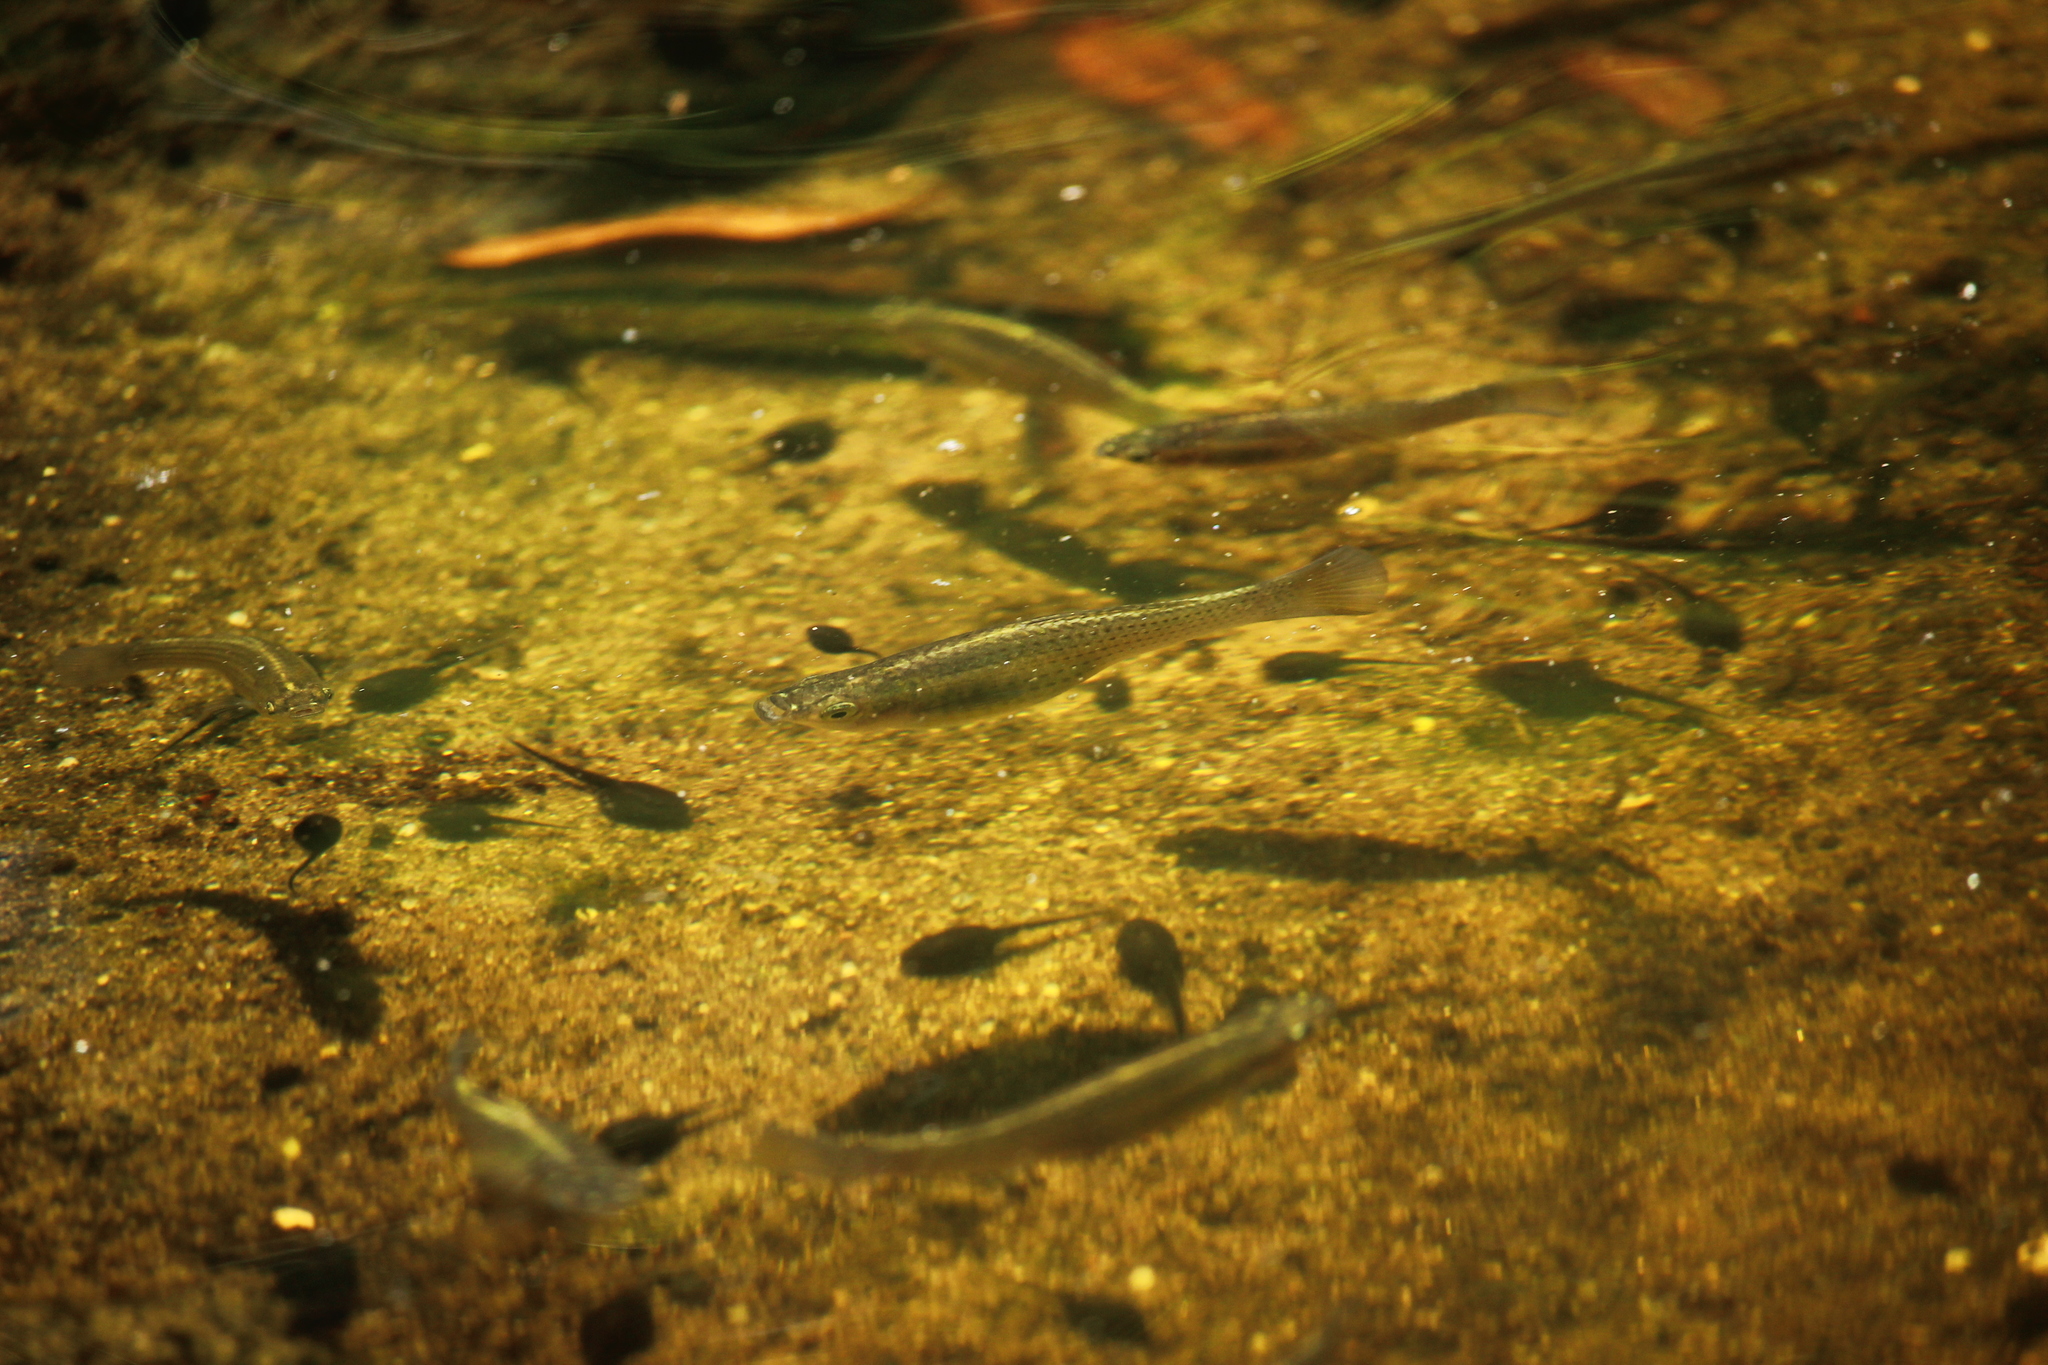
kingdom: Animalia
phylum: Chordata
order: Cyprinodontiformes
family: Poeciliidae
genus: Poecilia
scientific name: Poecilia latipinna
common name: Sailfin molly
